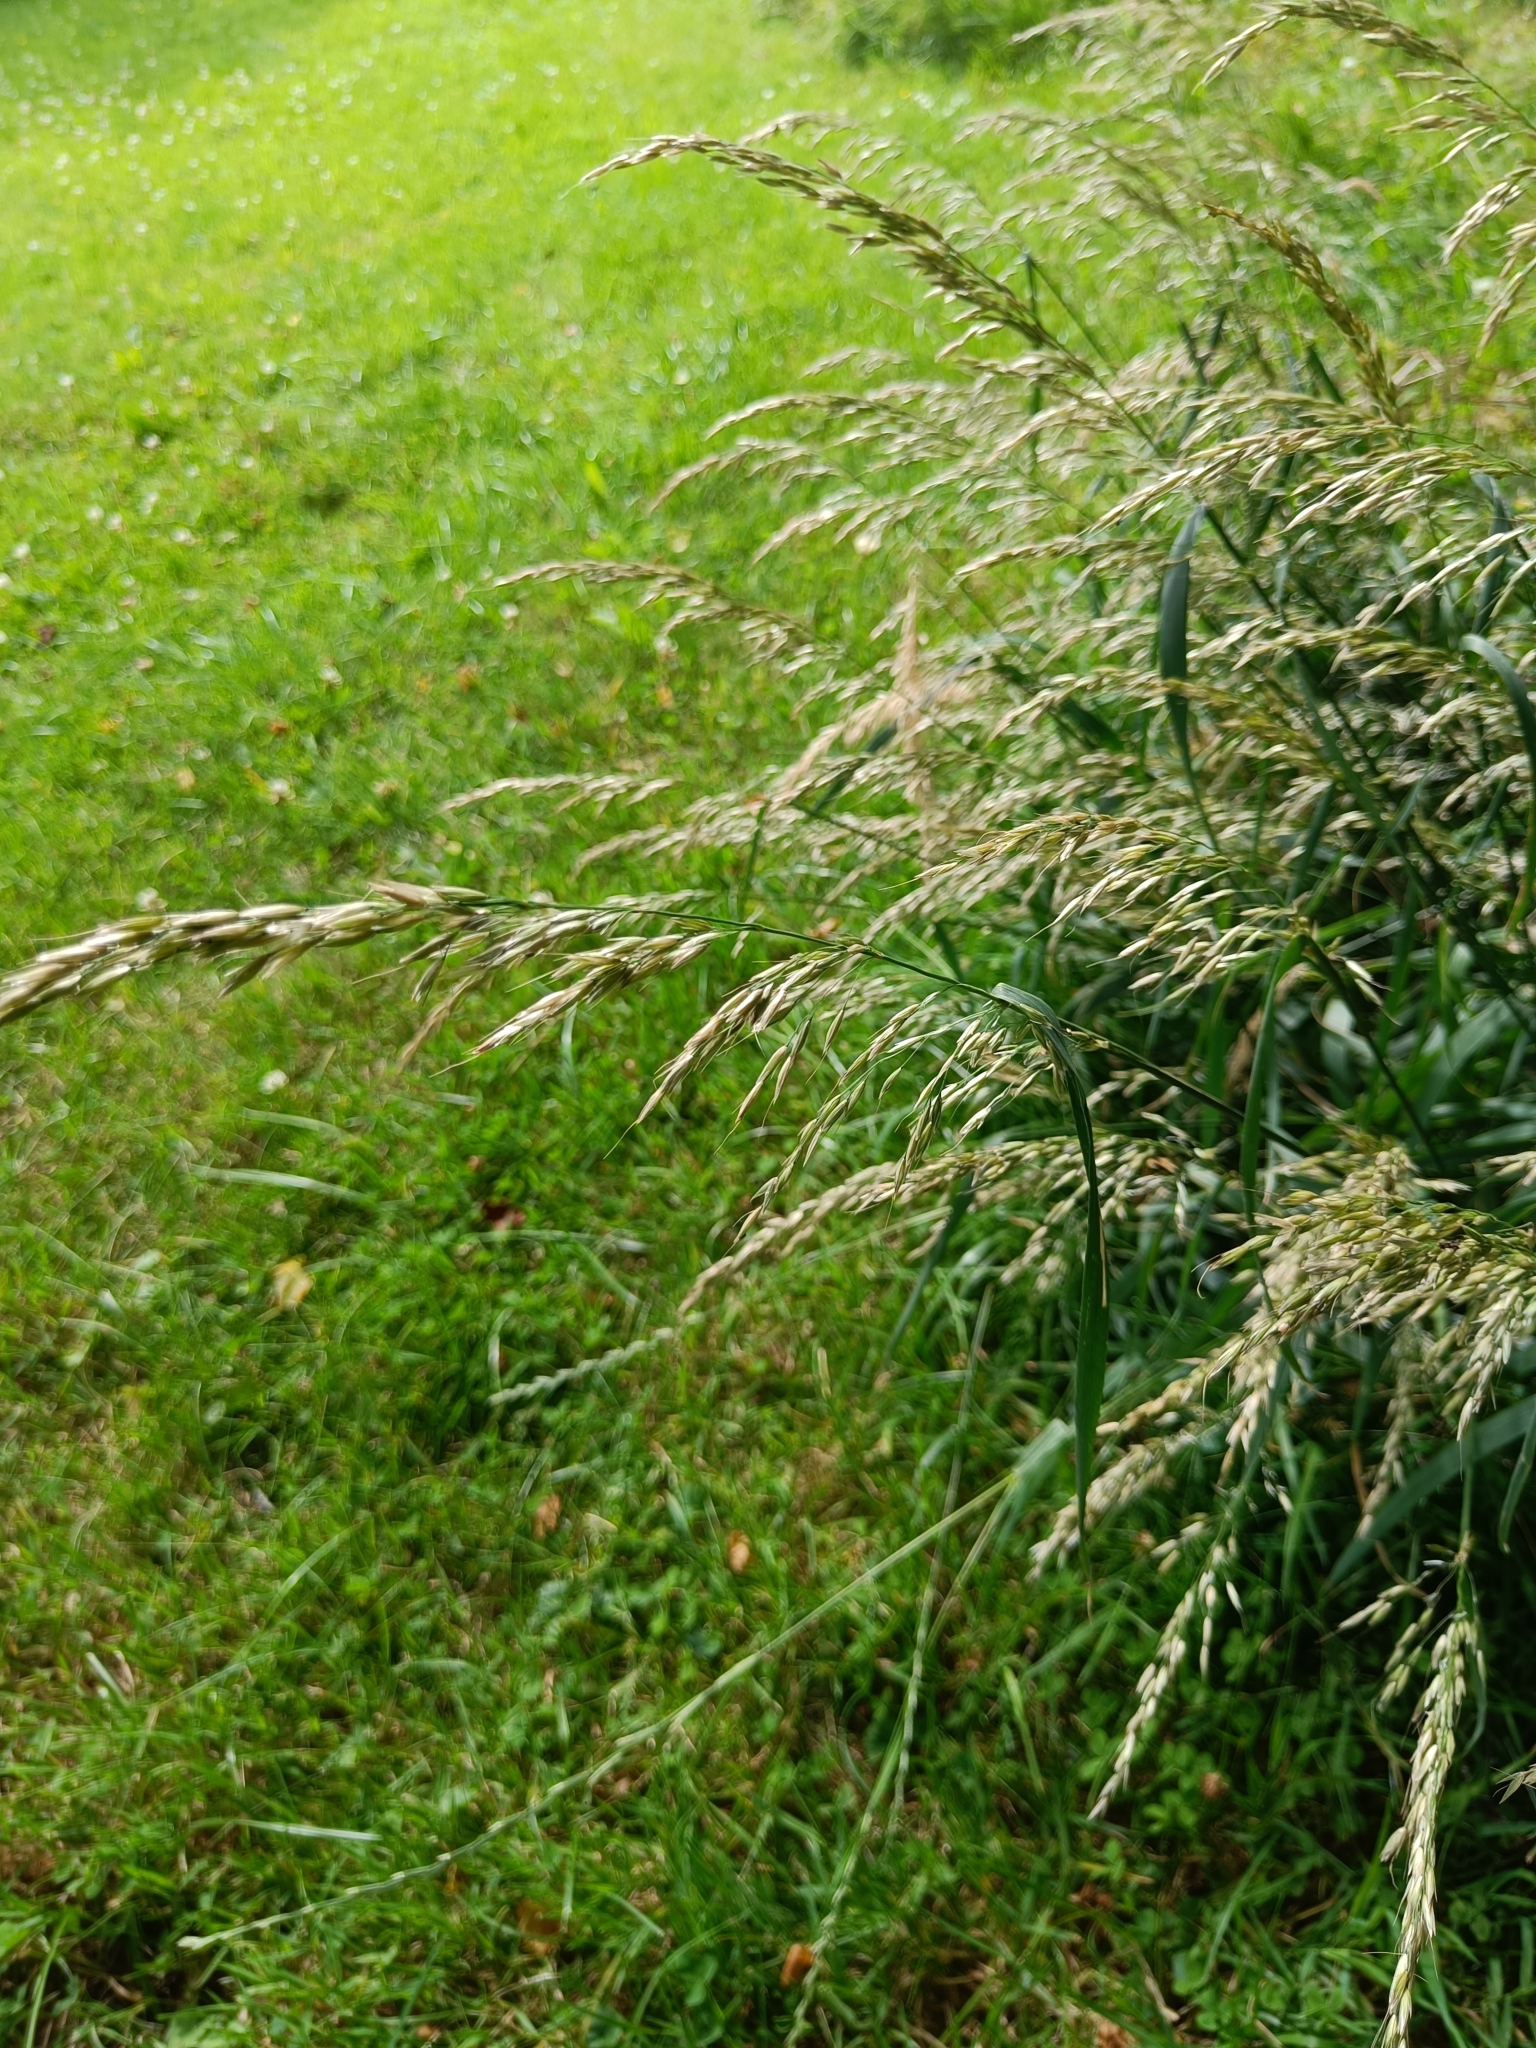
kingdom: Plantae
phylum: Tracheophyta
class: Liliopsida
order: Poales
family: Poaceae
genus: Arrhenatherum
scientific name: Arrhenatherum elatius
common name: Tall oatgrass
